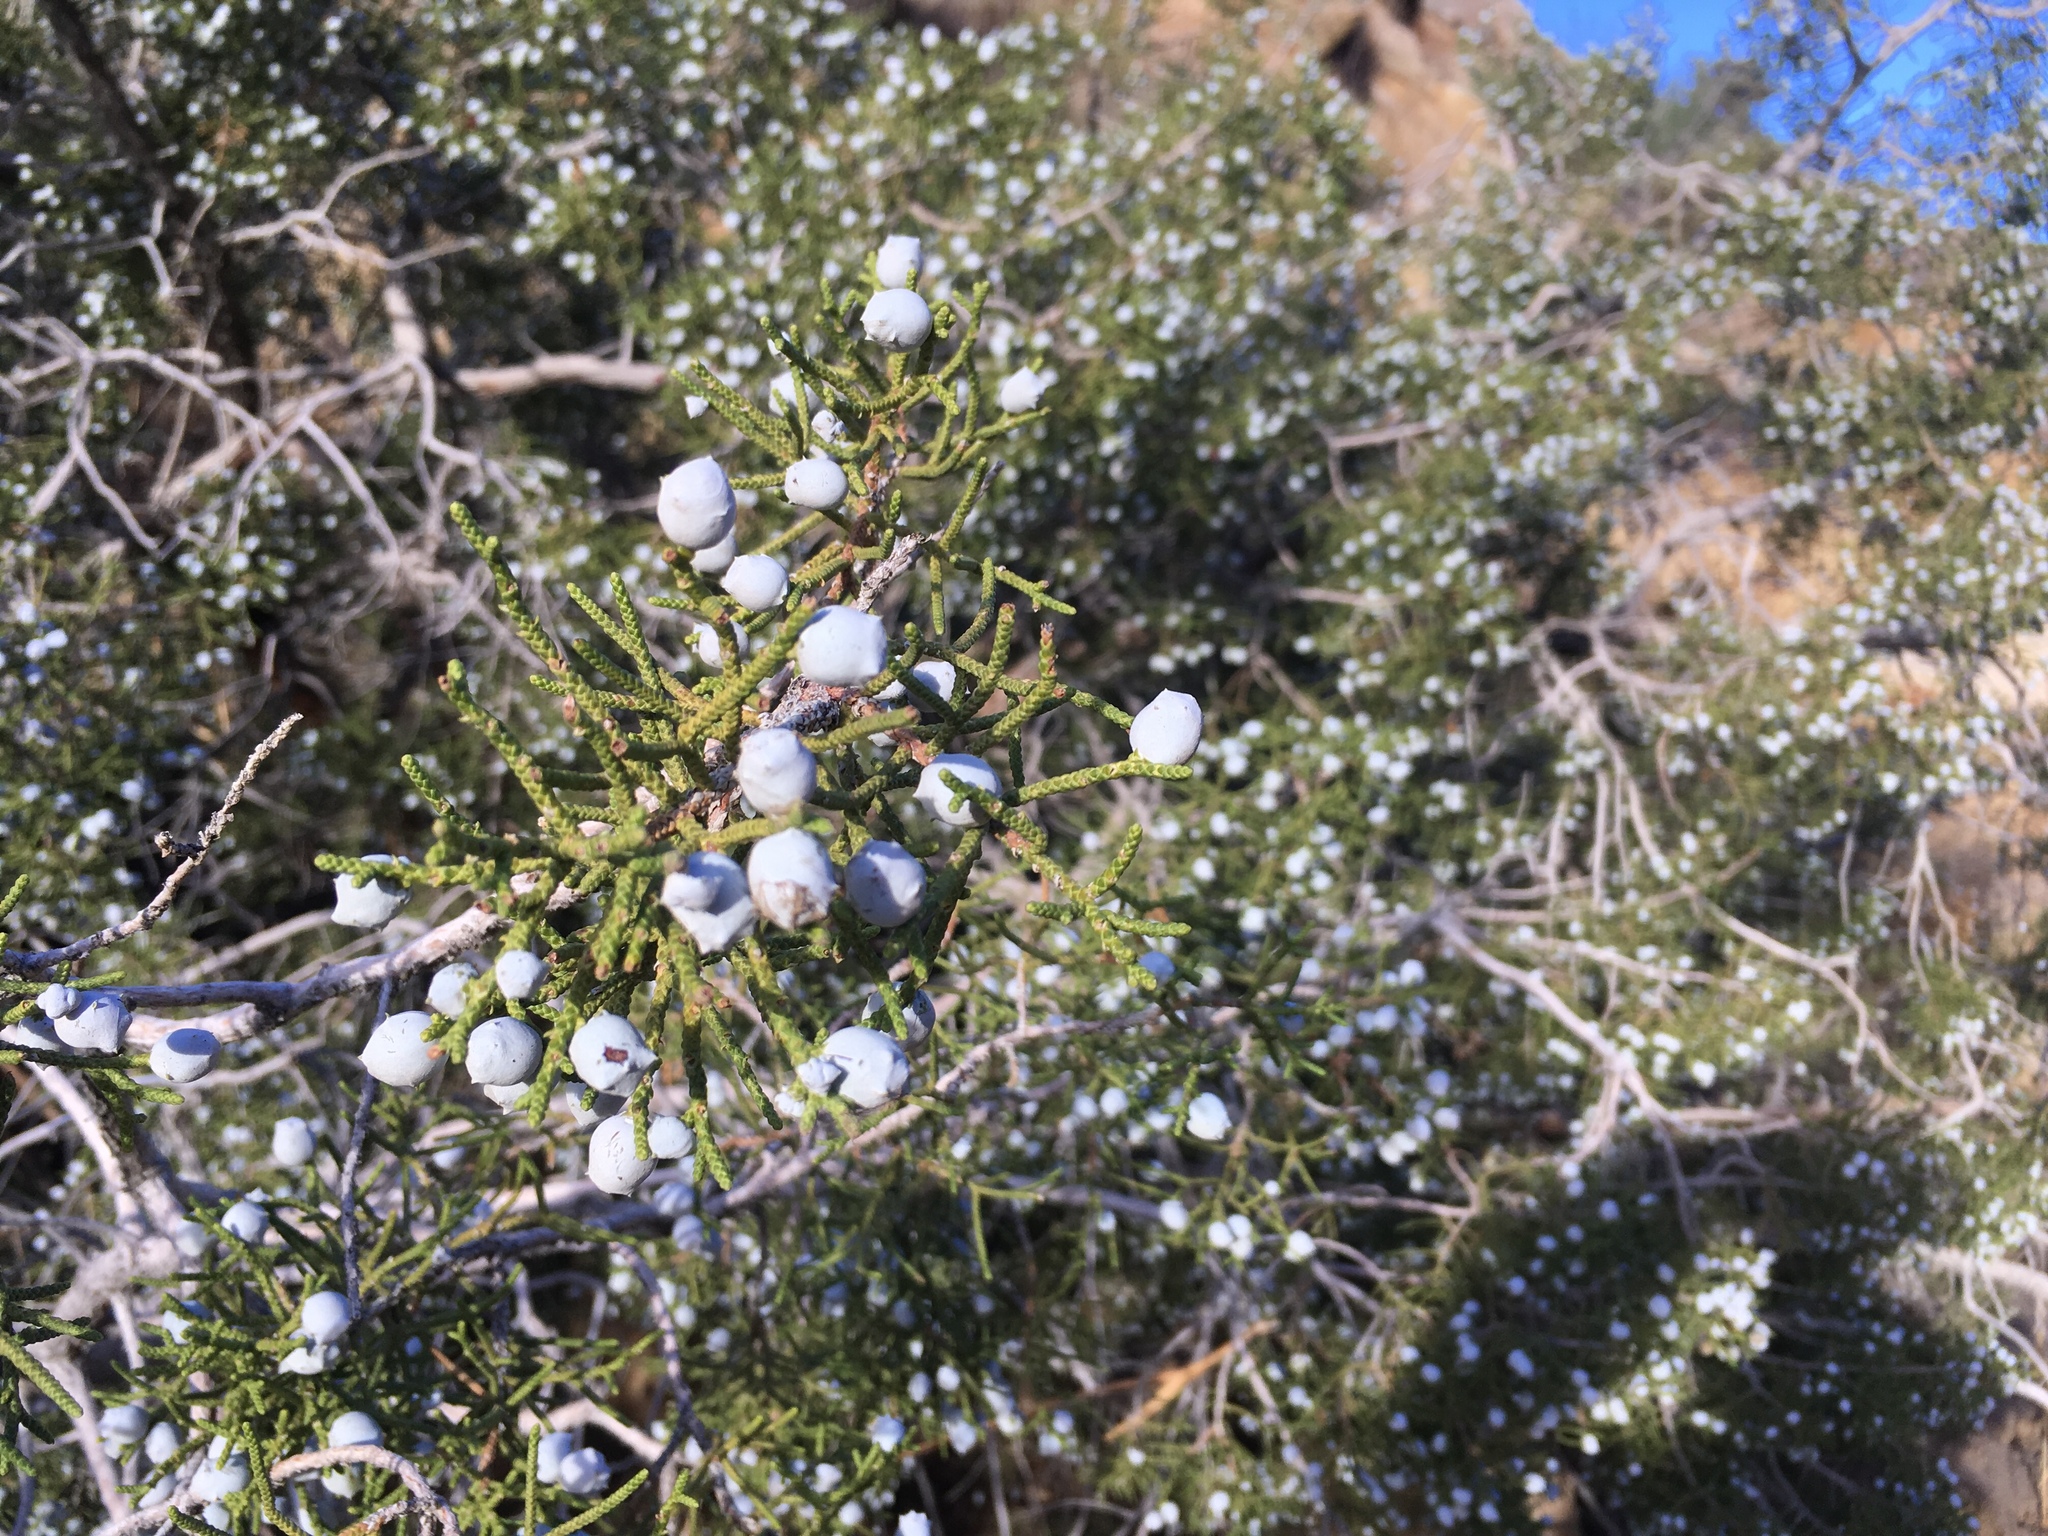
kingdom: Plantae
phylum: Tracheophyta
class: Pinopsida
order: Pinales
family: Cupressaceae
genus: Juniperus
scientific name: Juniperus californica
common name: California juniper
